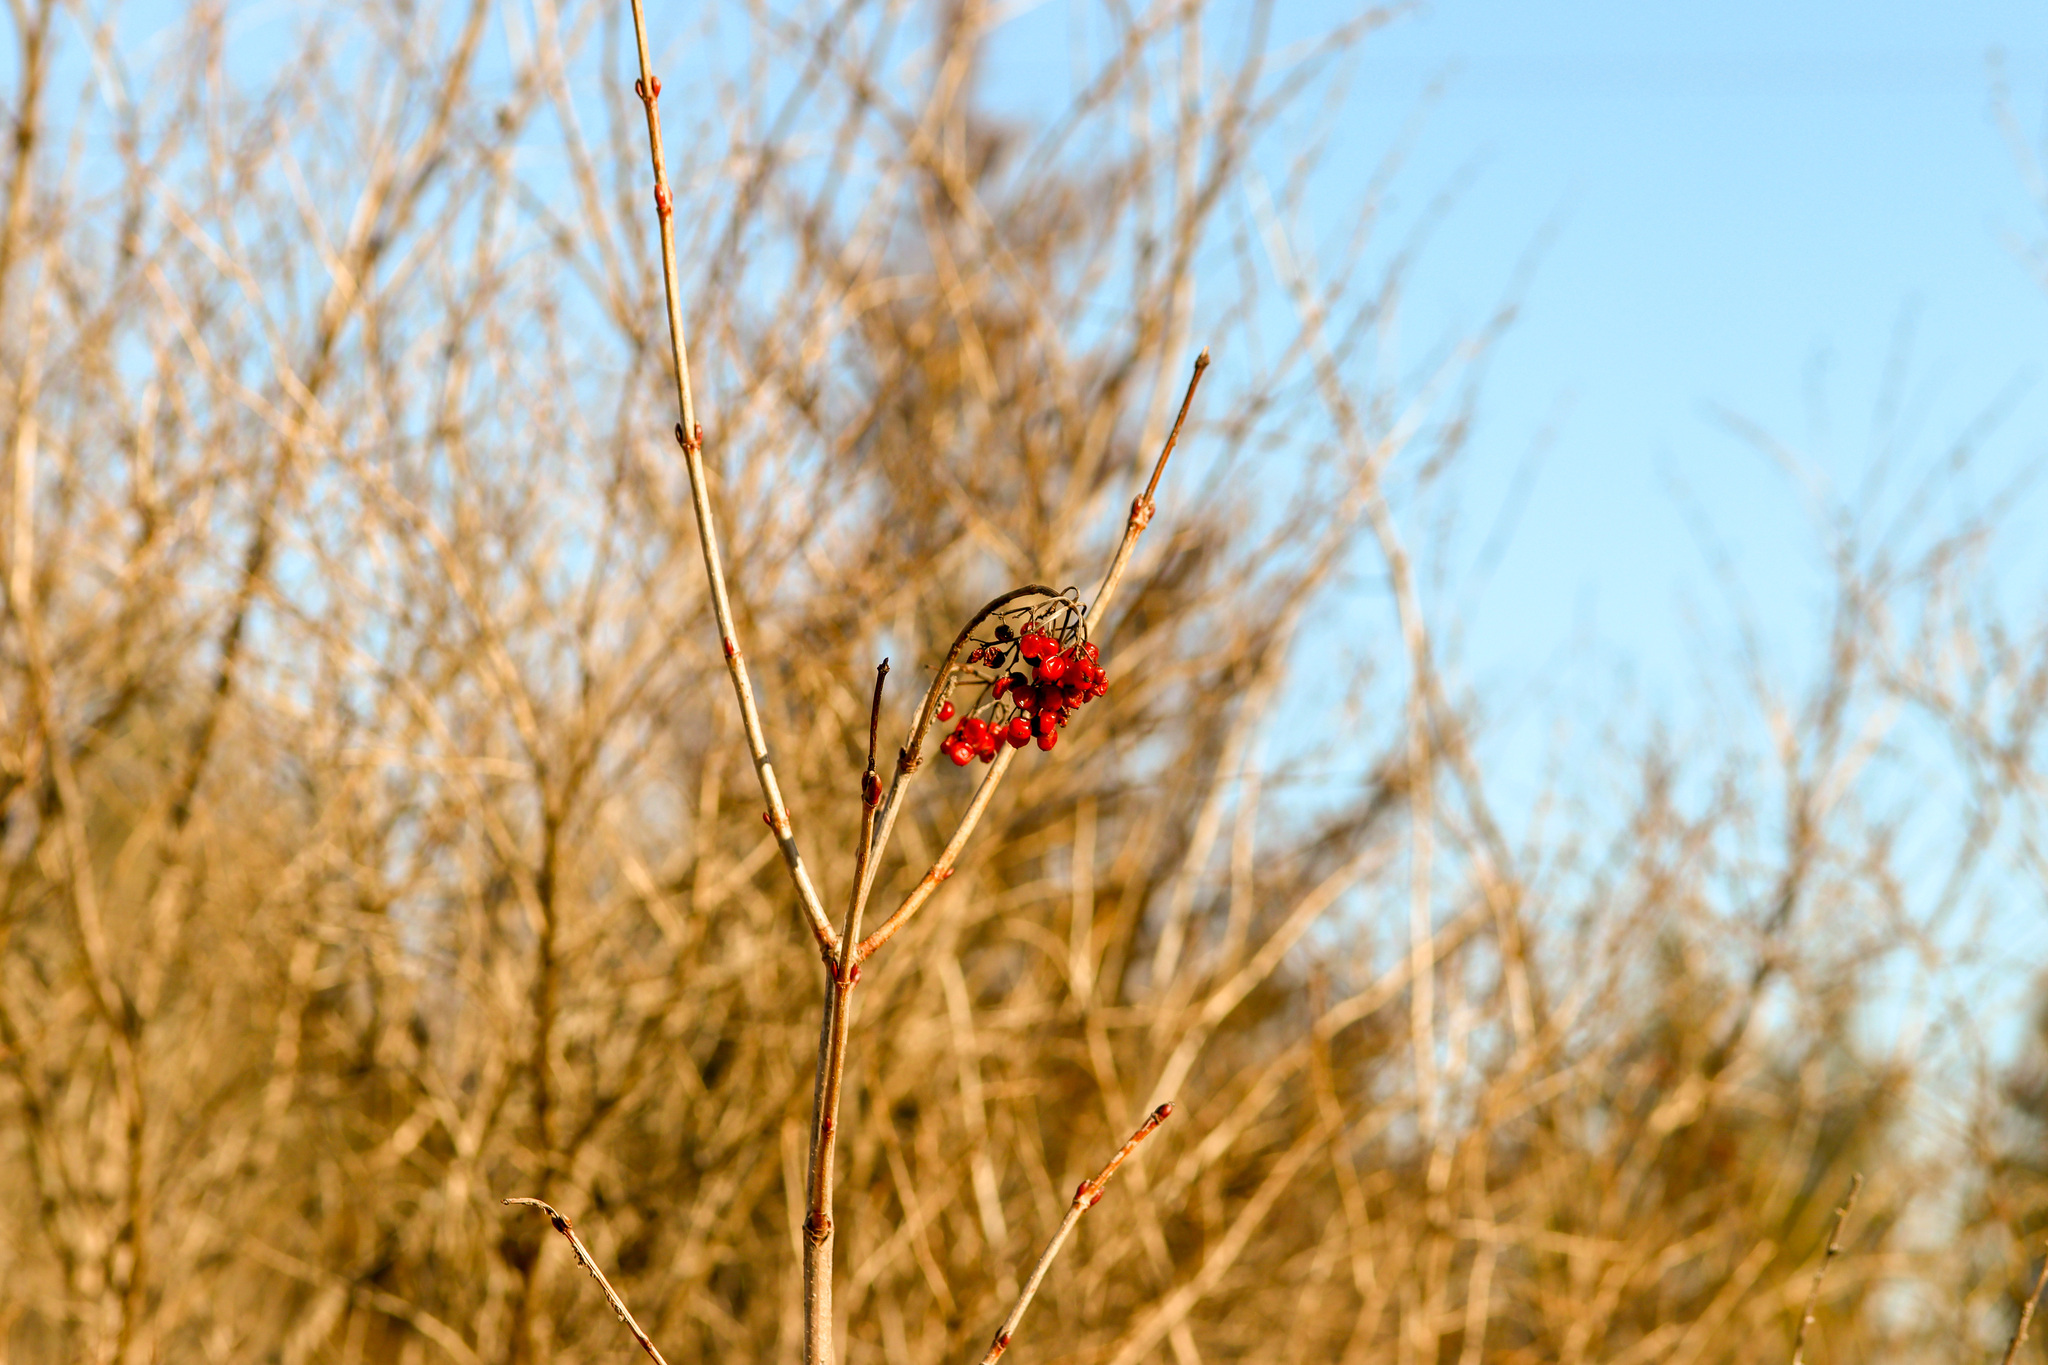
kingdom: Plantae
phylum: Tracheophyta
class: Magnoliopsida
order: Dipsacales
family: Viburnaceae
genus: Viburnum
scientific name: Viburnum opulus
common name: Guelder-rose
